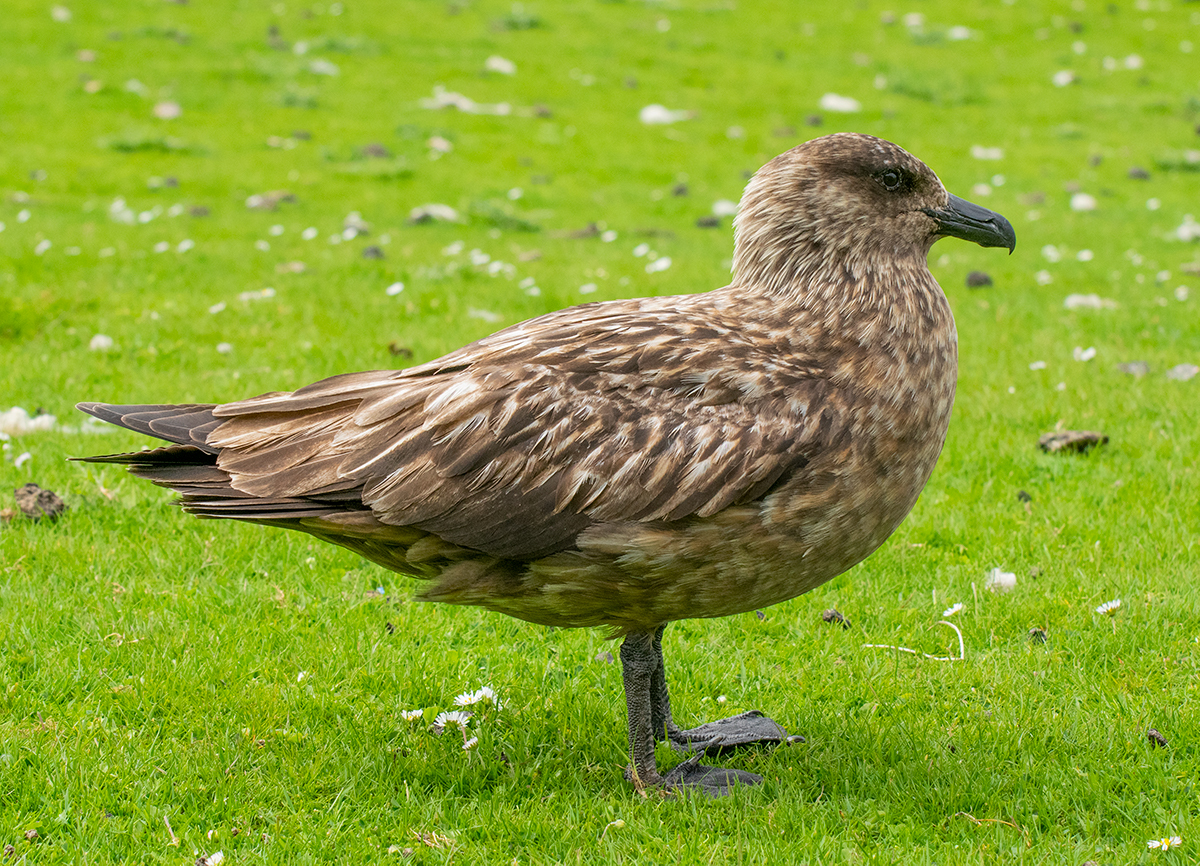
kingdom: Animalia
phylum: Chordata
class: Aves
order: Charadriiformes
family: Stercorariidae
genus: Stercorarius
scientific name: Stercorarius skua
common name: Great skua
